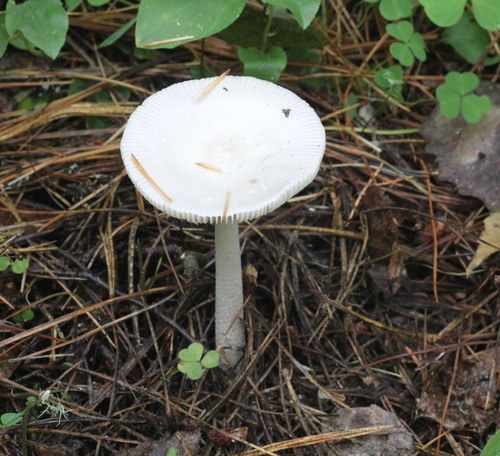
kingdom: Fungi
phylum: Basidiomycota
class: Agaricomycetes
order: Agaricales
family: Amanitaceae
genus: Amanita
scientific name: Amanita
